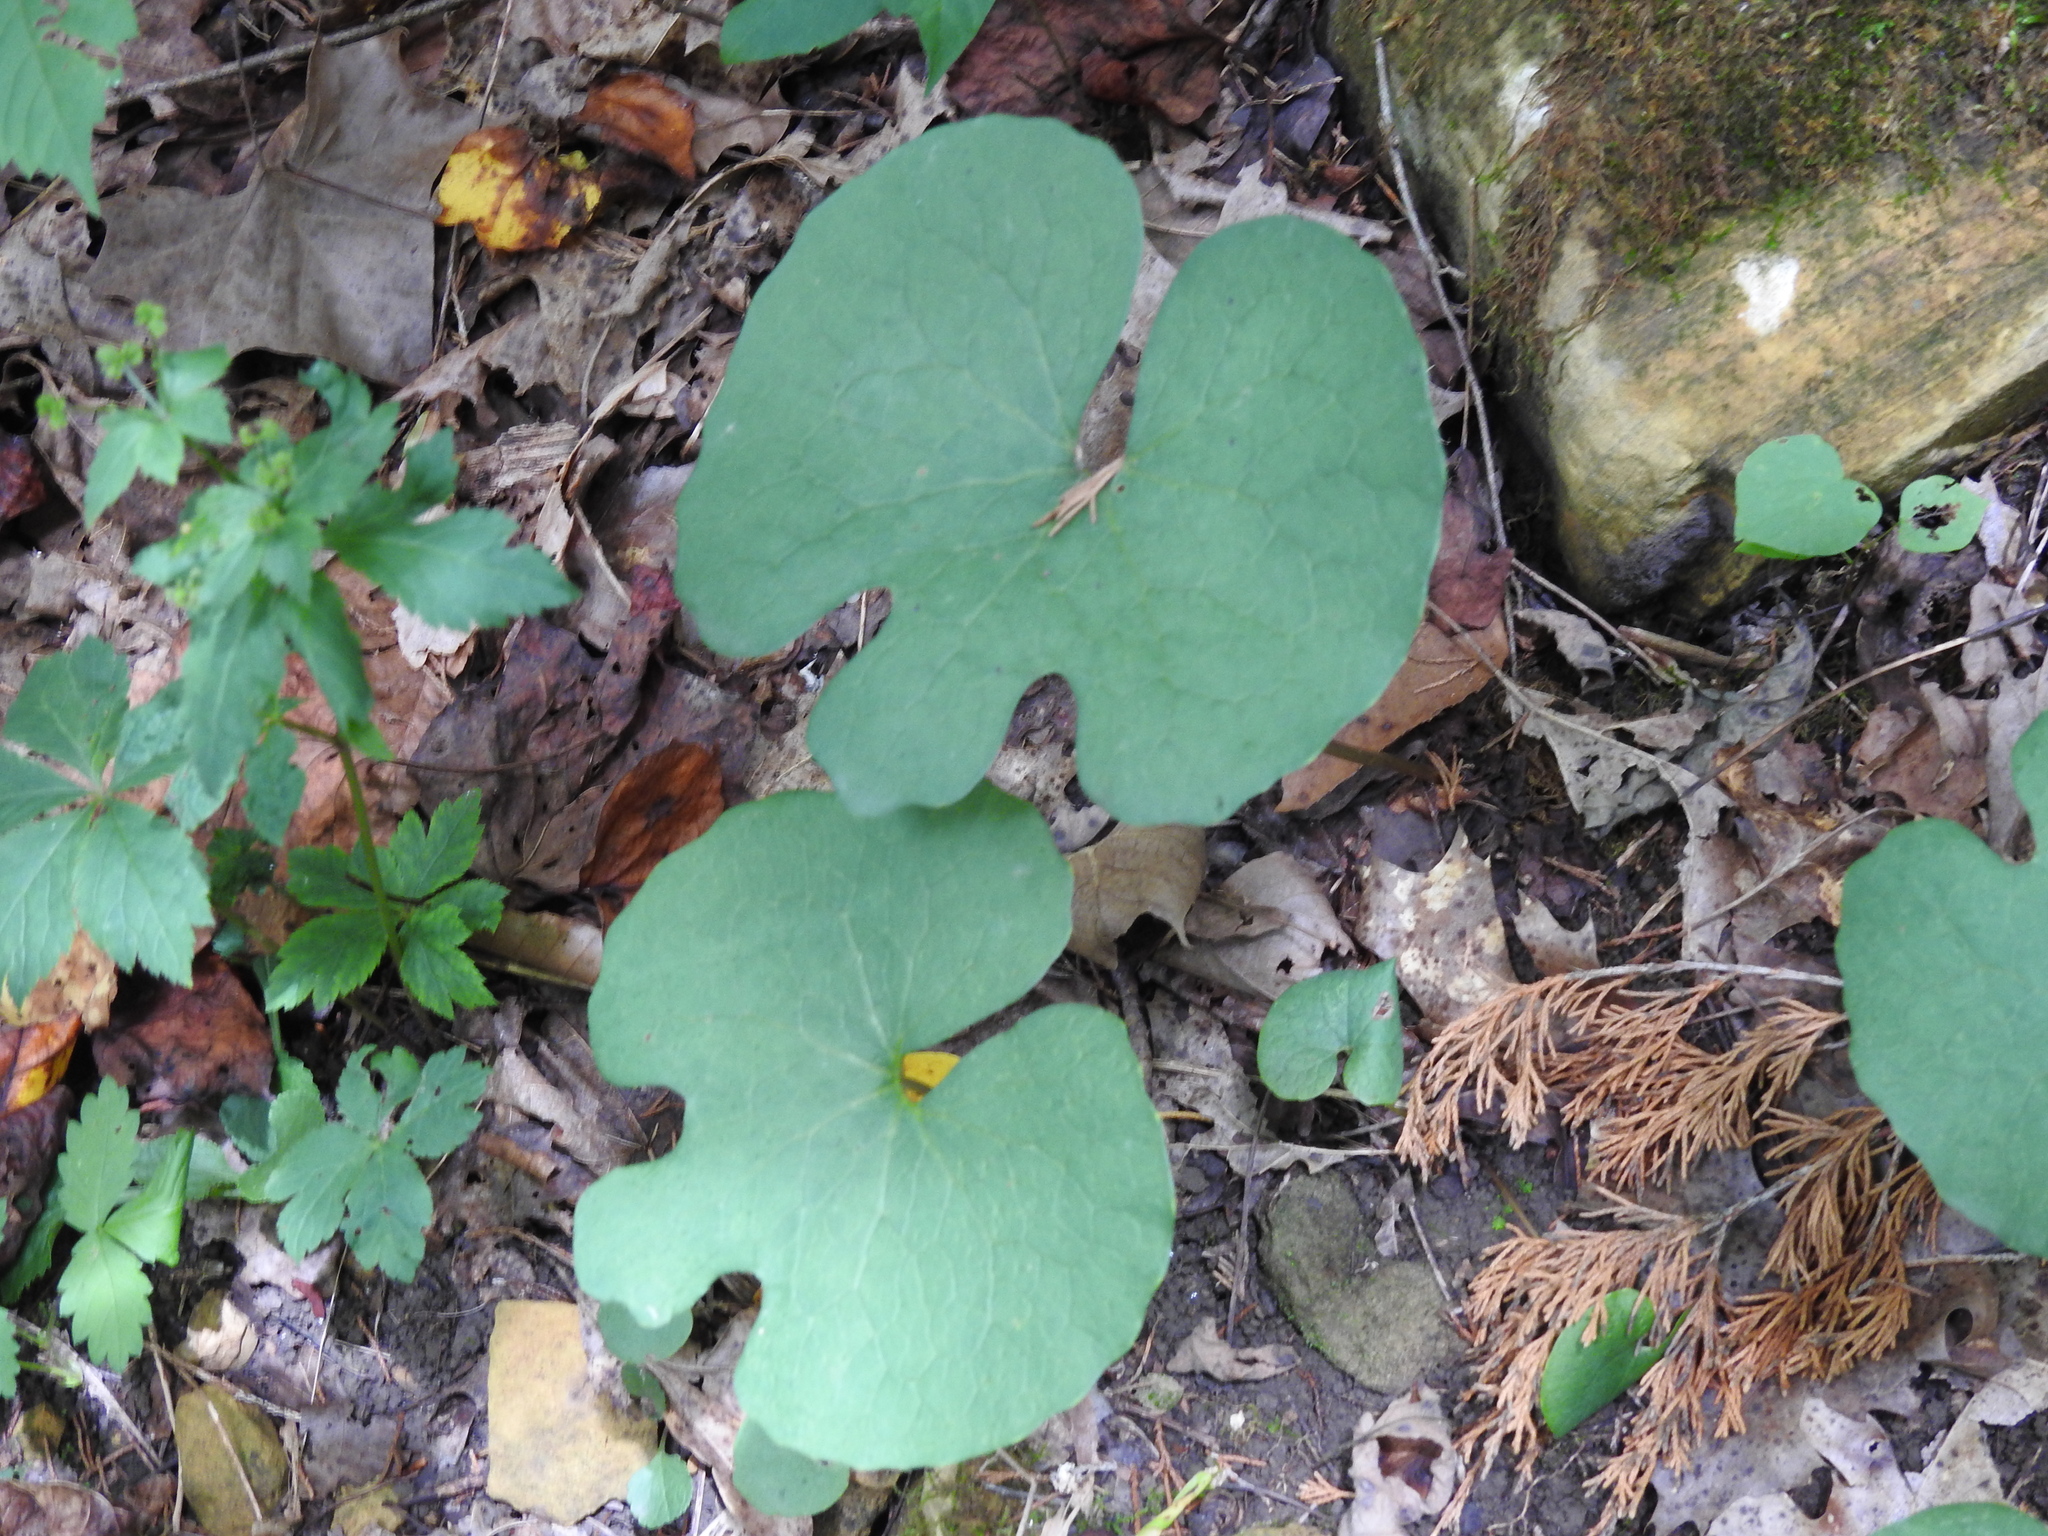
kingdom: Plantae
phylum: Tracheophyta
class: Magnoliopsida
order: Ranunculales
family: Papaveraceae
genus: Sanguinaria
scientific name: Sanguinaria canadensis
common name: Bloodroot
